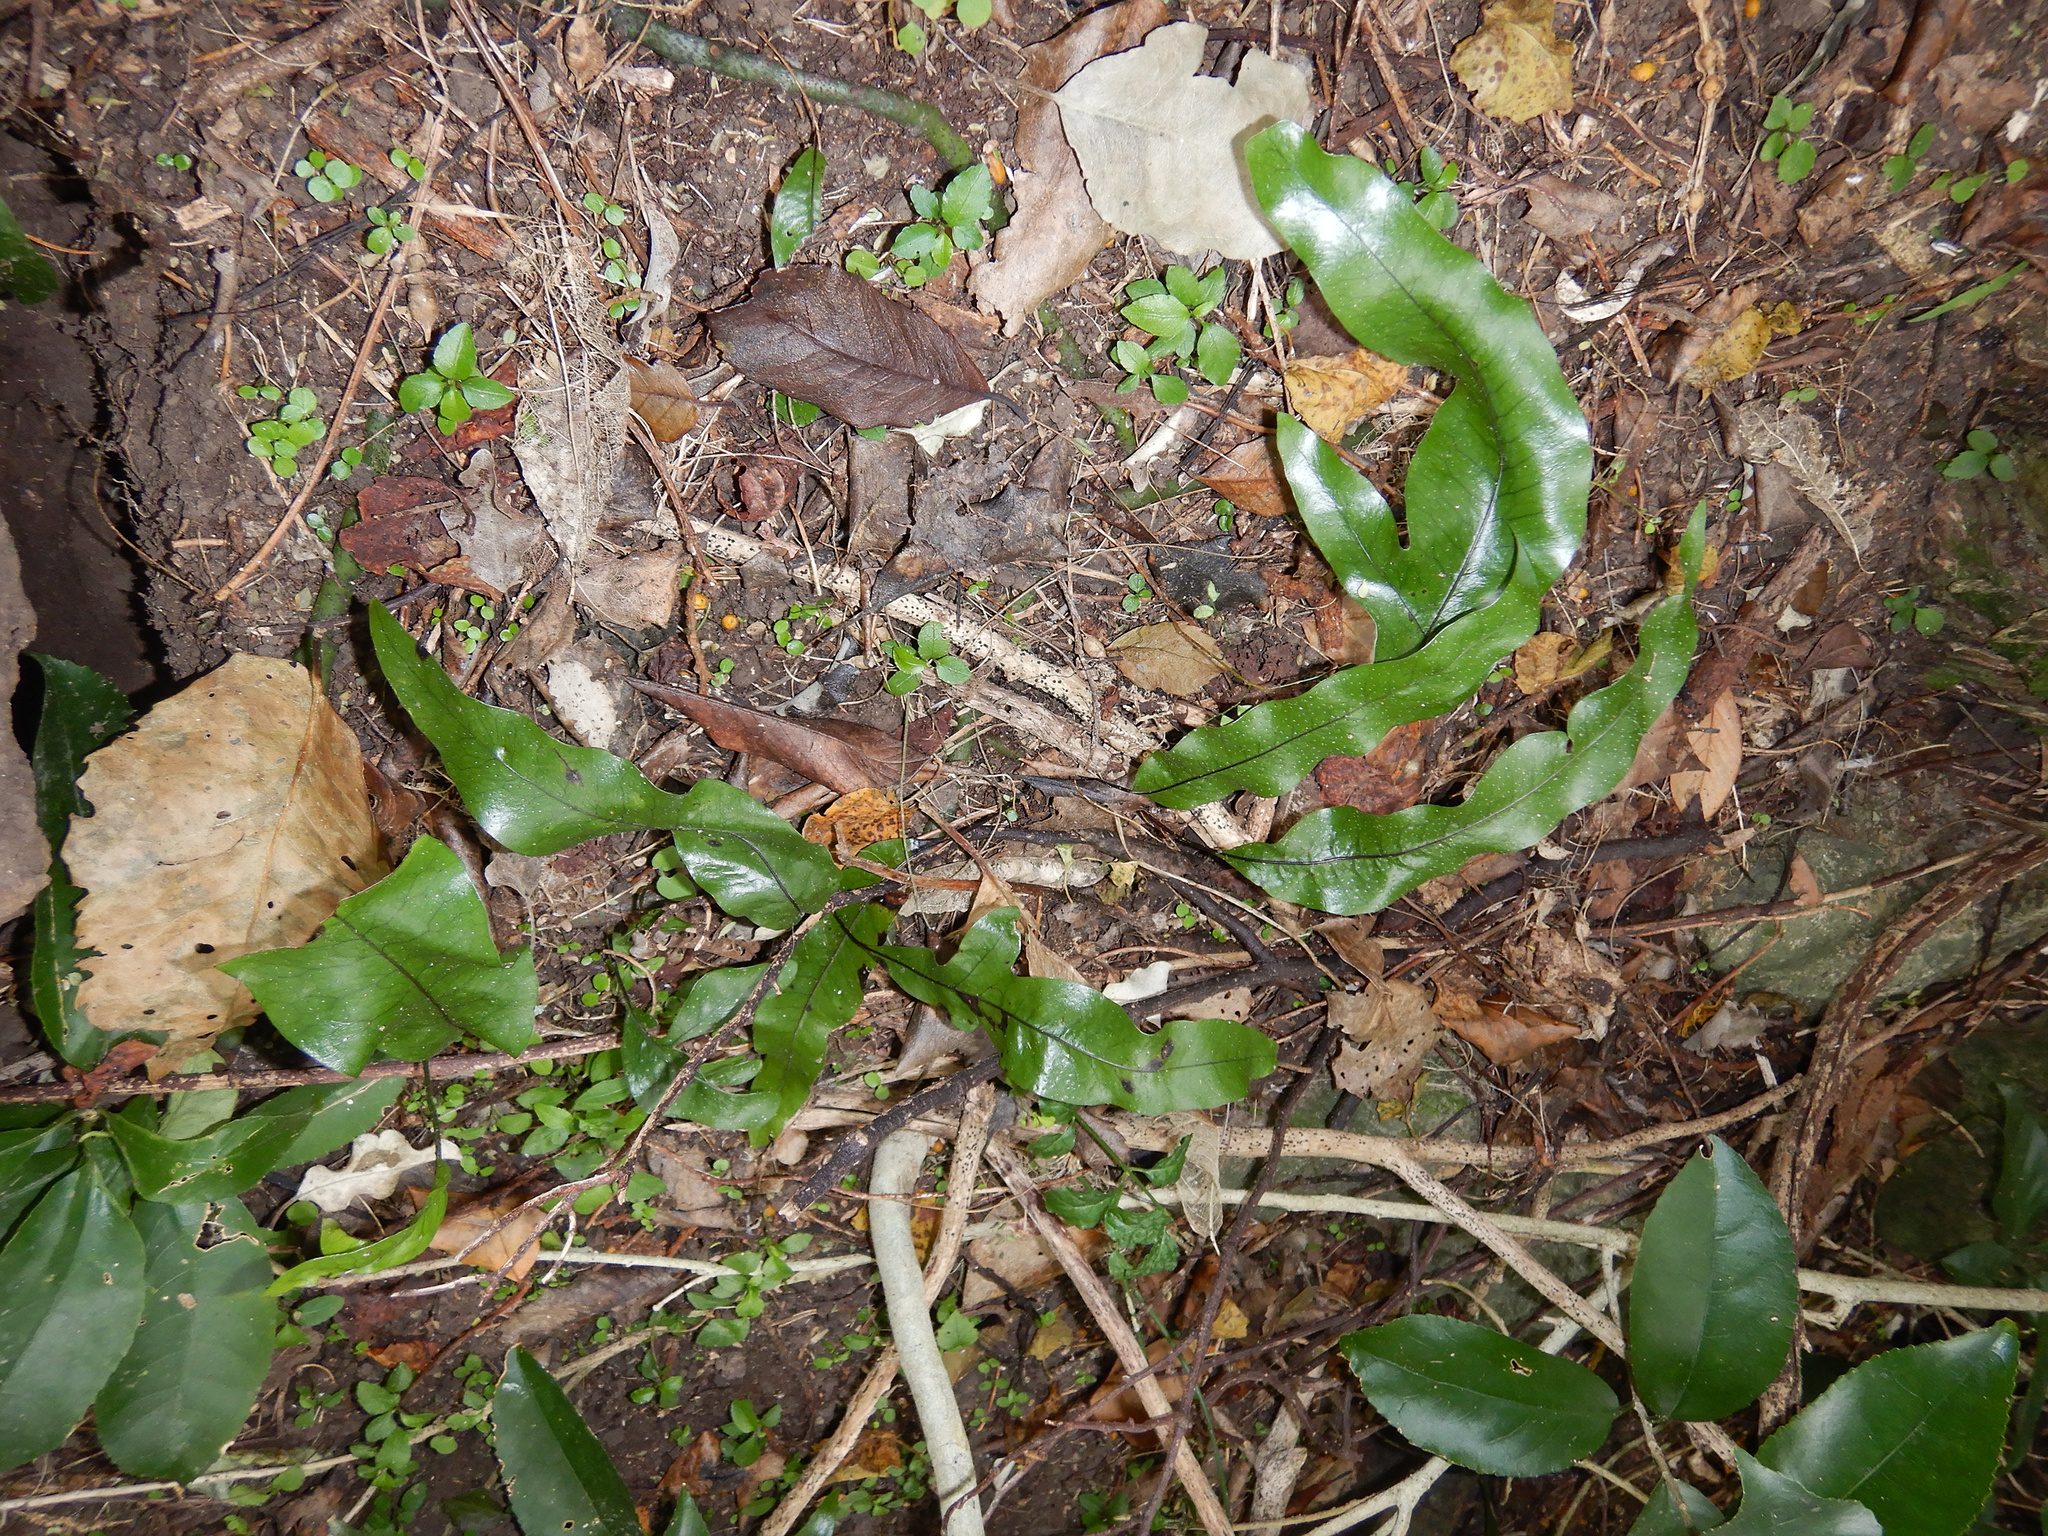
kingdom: Plantae
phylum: Tracheophyta
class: Polypodiopsida
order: Polypodiales
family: Polypodiaceae
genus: Lecanopteris
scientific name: Lecanopteris pustulata
